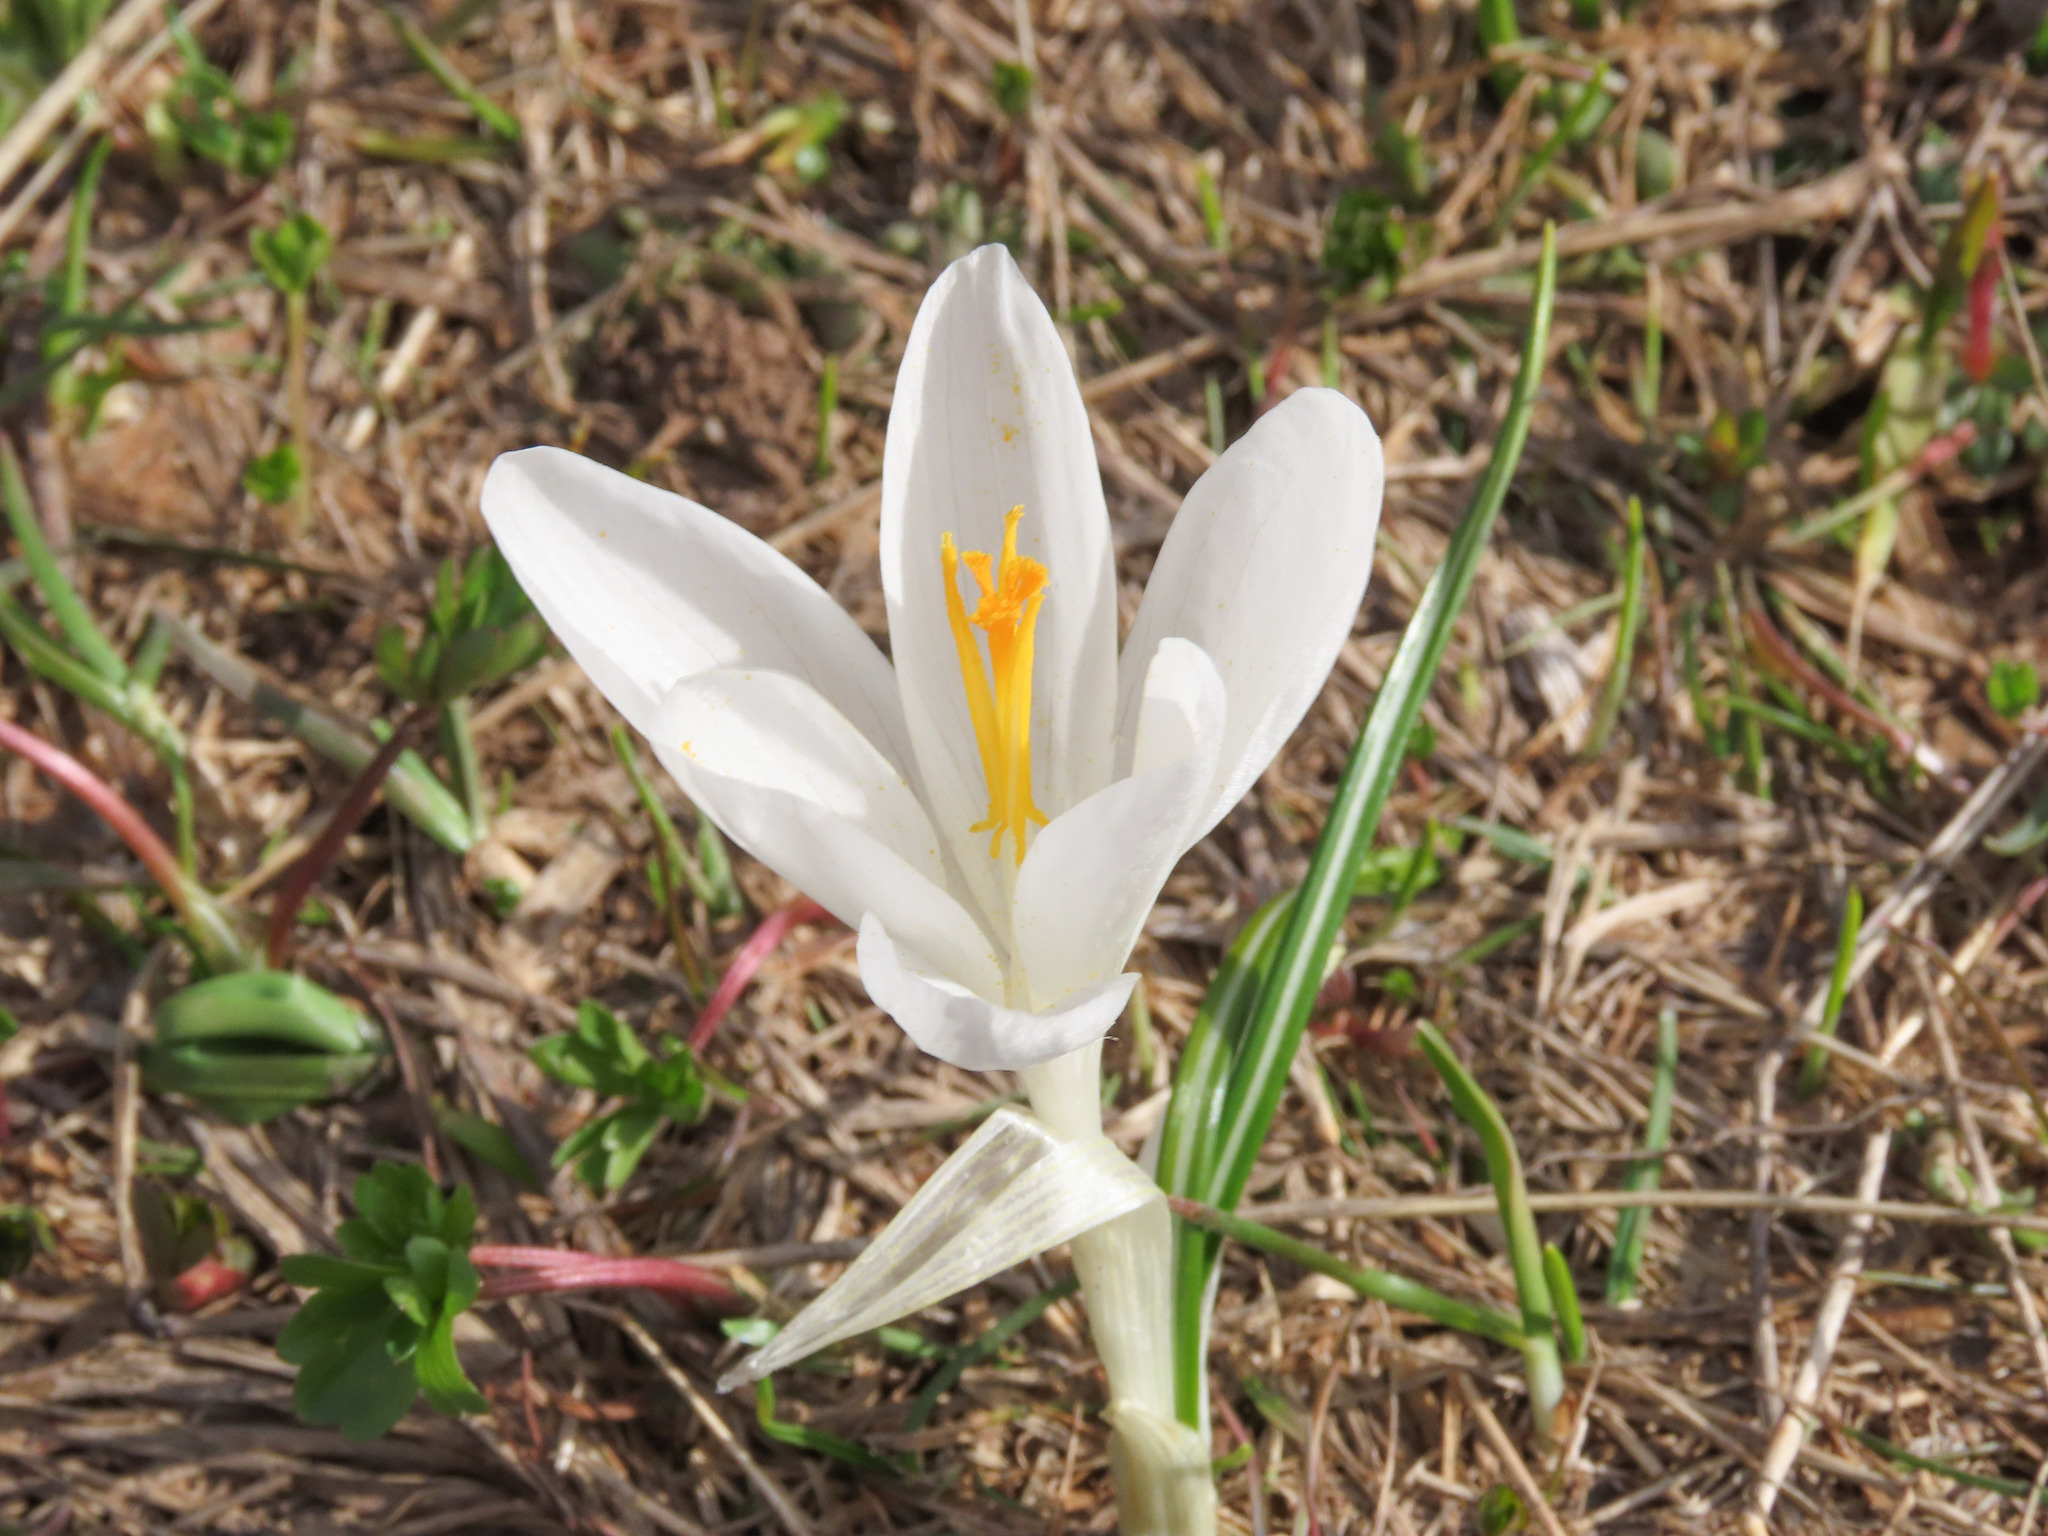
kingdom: Plantae
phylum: Tracheophyta
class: Liliopsida
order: Asparagales
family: Iridaceae
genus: Crocus
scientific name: Crocus neapolitanus
